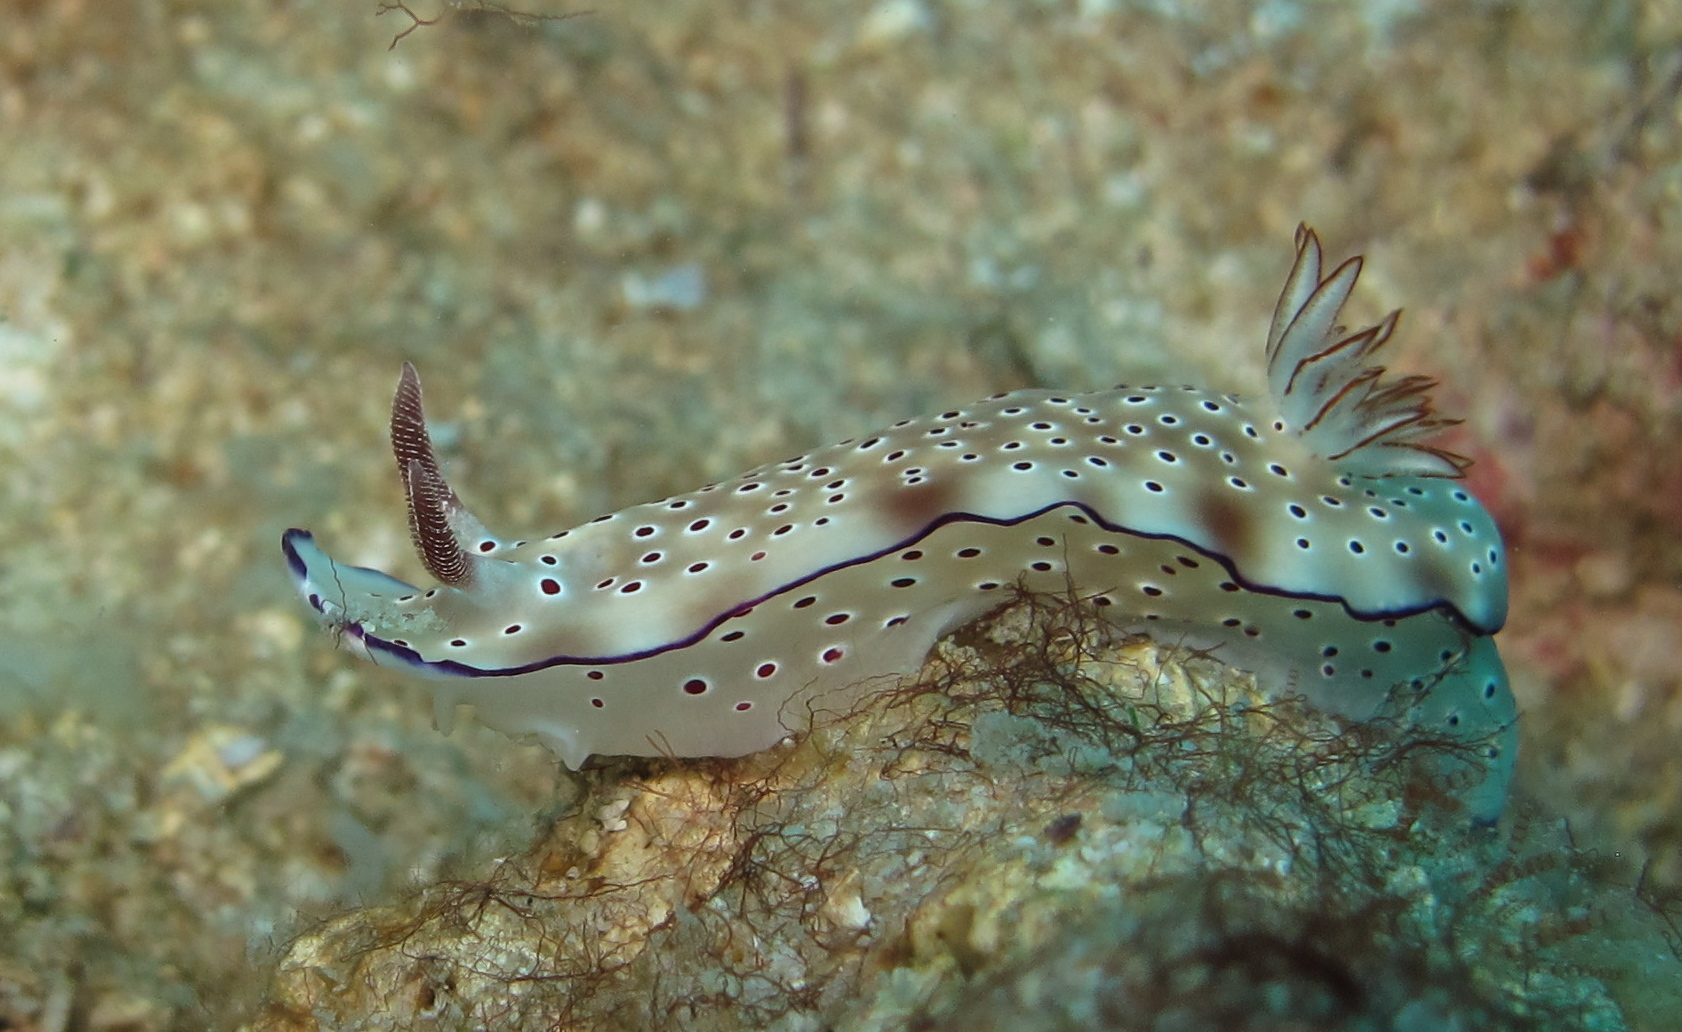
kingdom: Animalia
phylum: Mollusca
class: Gastropoda
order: Nudibranchia
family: Chromodorididae
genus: Hypselodoris
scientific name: Hypselodoris tryoni
